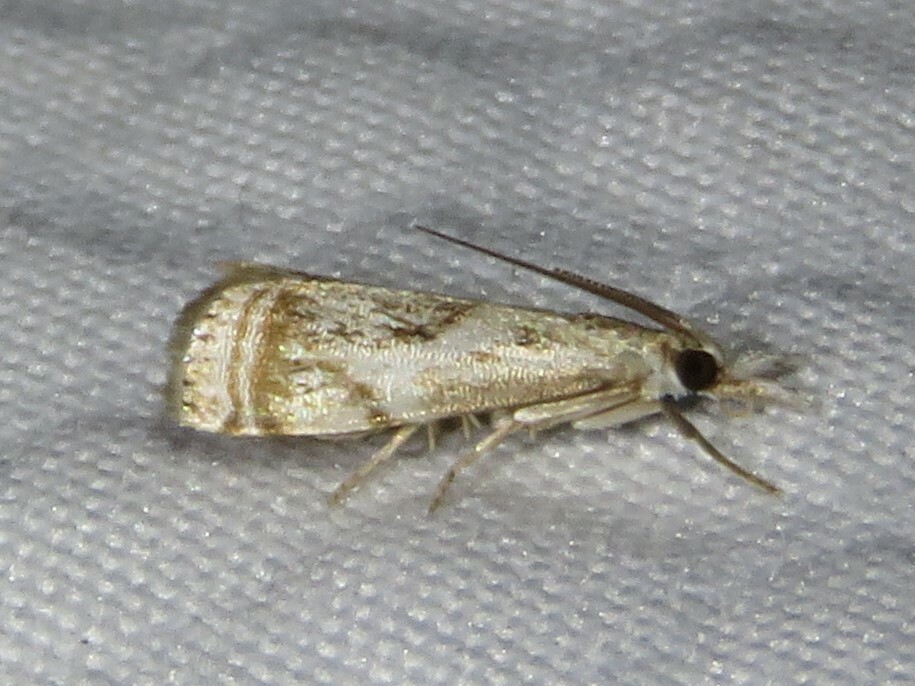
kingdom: Animalia
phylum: Arthropoda
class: Insecta
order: Lepidoptera
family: Crambidae
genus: Microcrambus
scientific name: Microcrambus elegans
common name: Elegant grass-veneer
